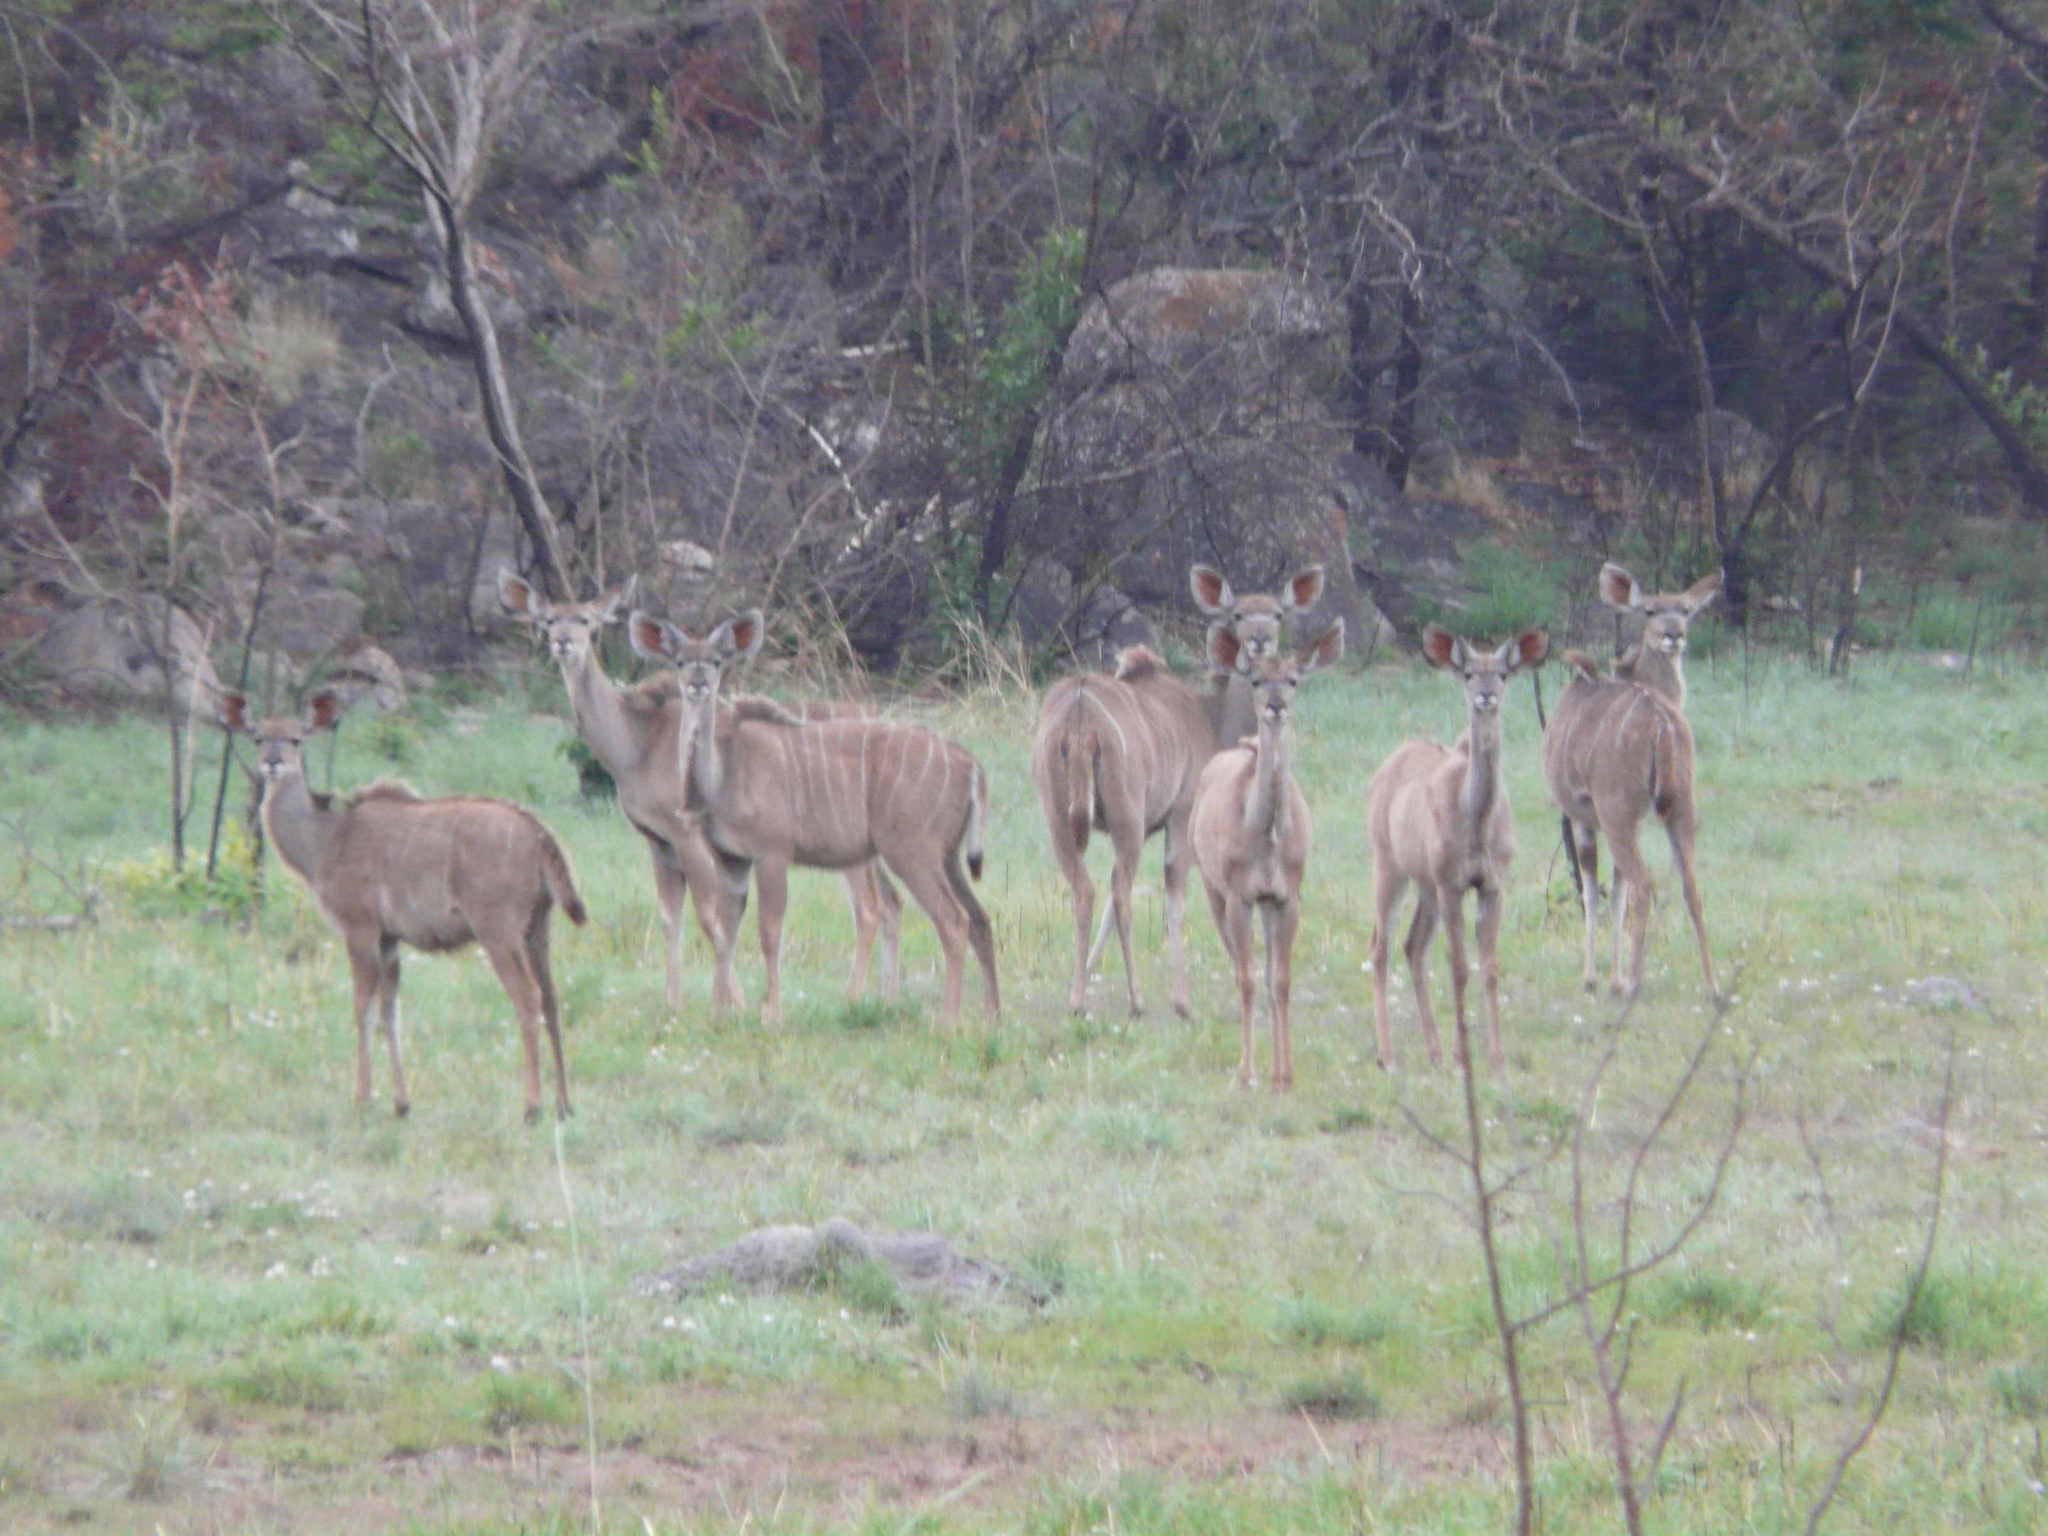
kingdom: Animalia
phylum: Chordata
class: Mammalia
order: Artiodactyla
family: Bovidae
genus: Tragelaphus
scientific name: Tragelaphus strepsiceros
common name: Greater kudu
